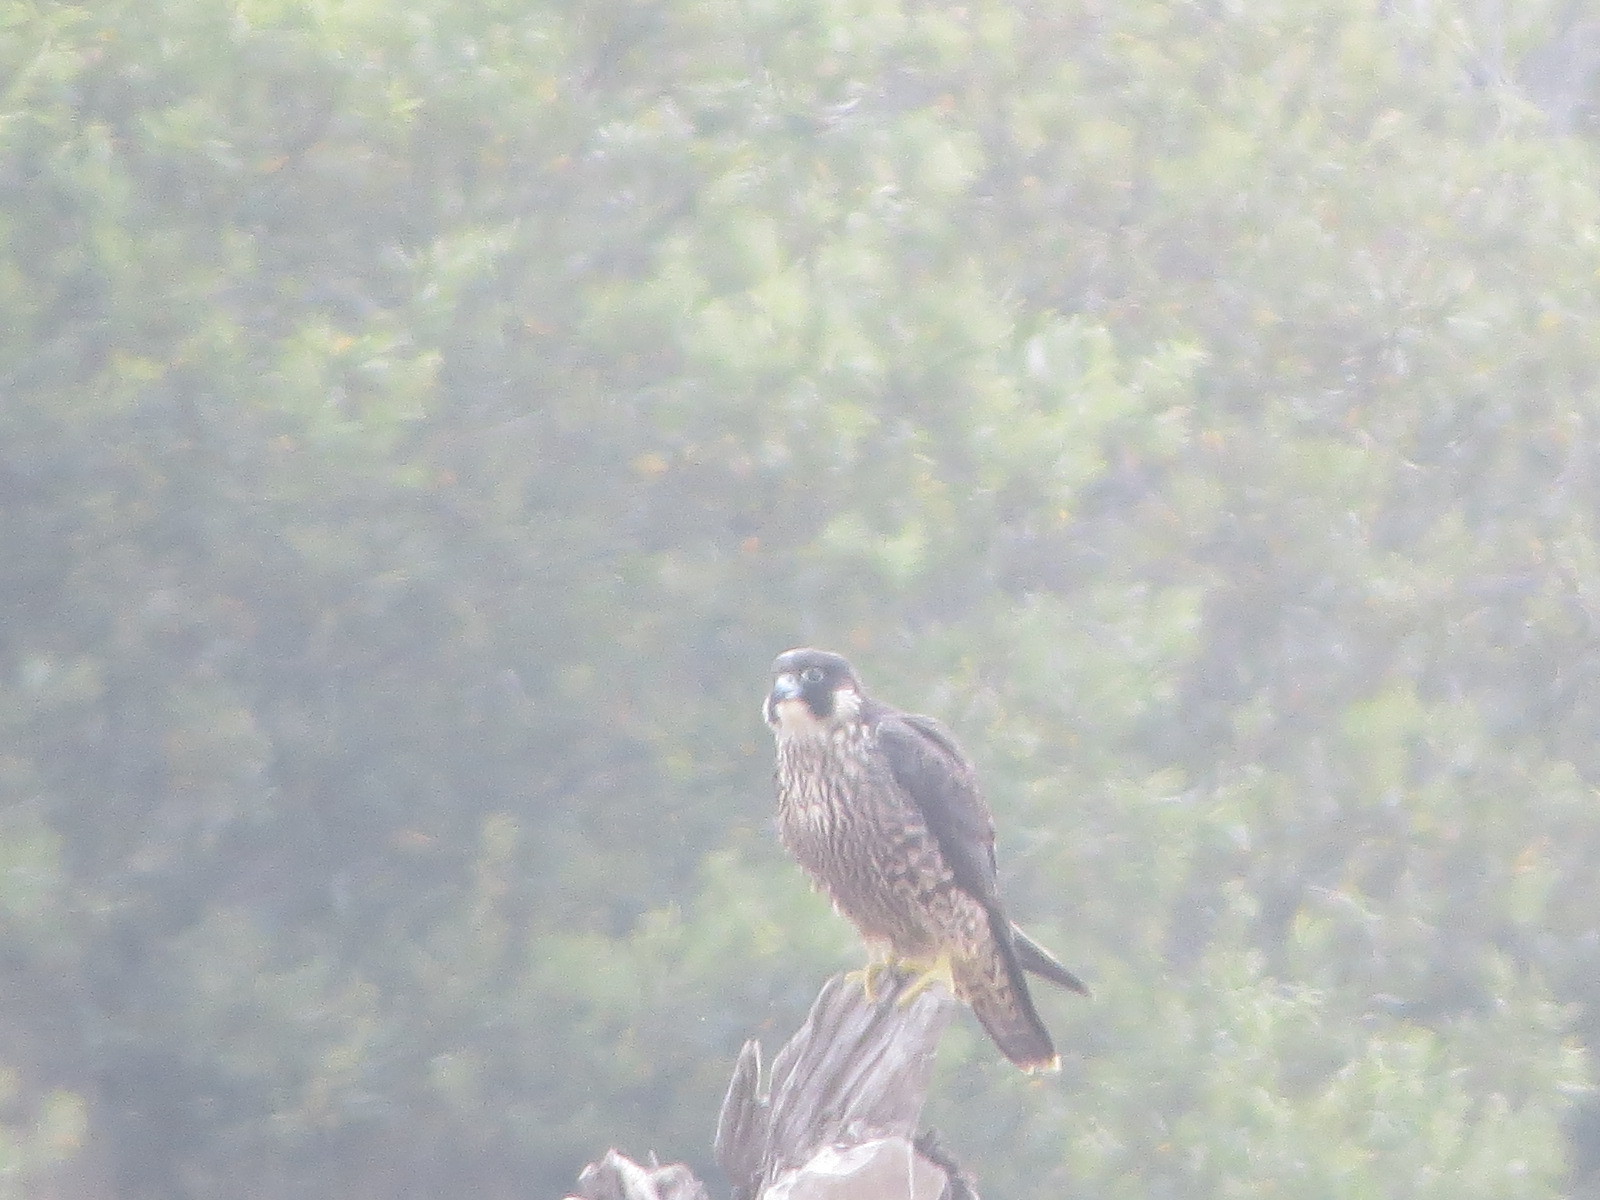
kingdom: Animalia
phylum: Chordata
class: Aves
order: Falconiformes
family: Falconidae
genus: Falco
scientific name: Falco peregrinus
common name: Peregrine falcon
